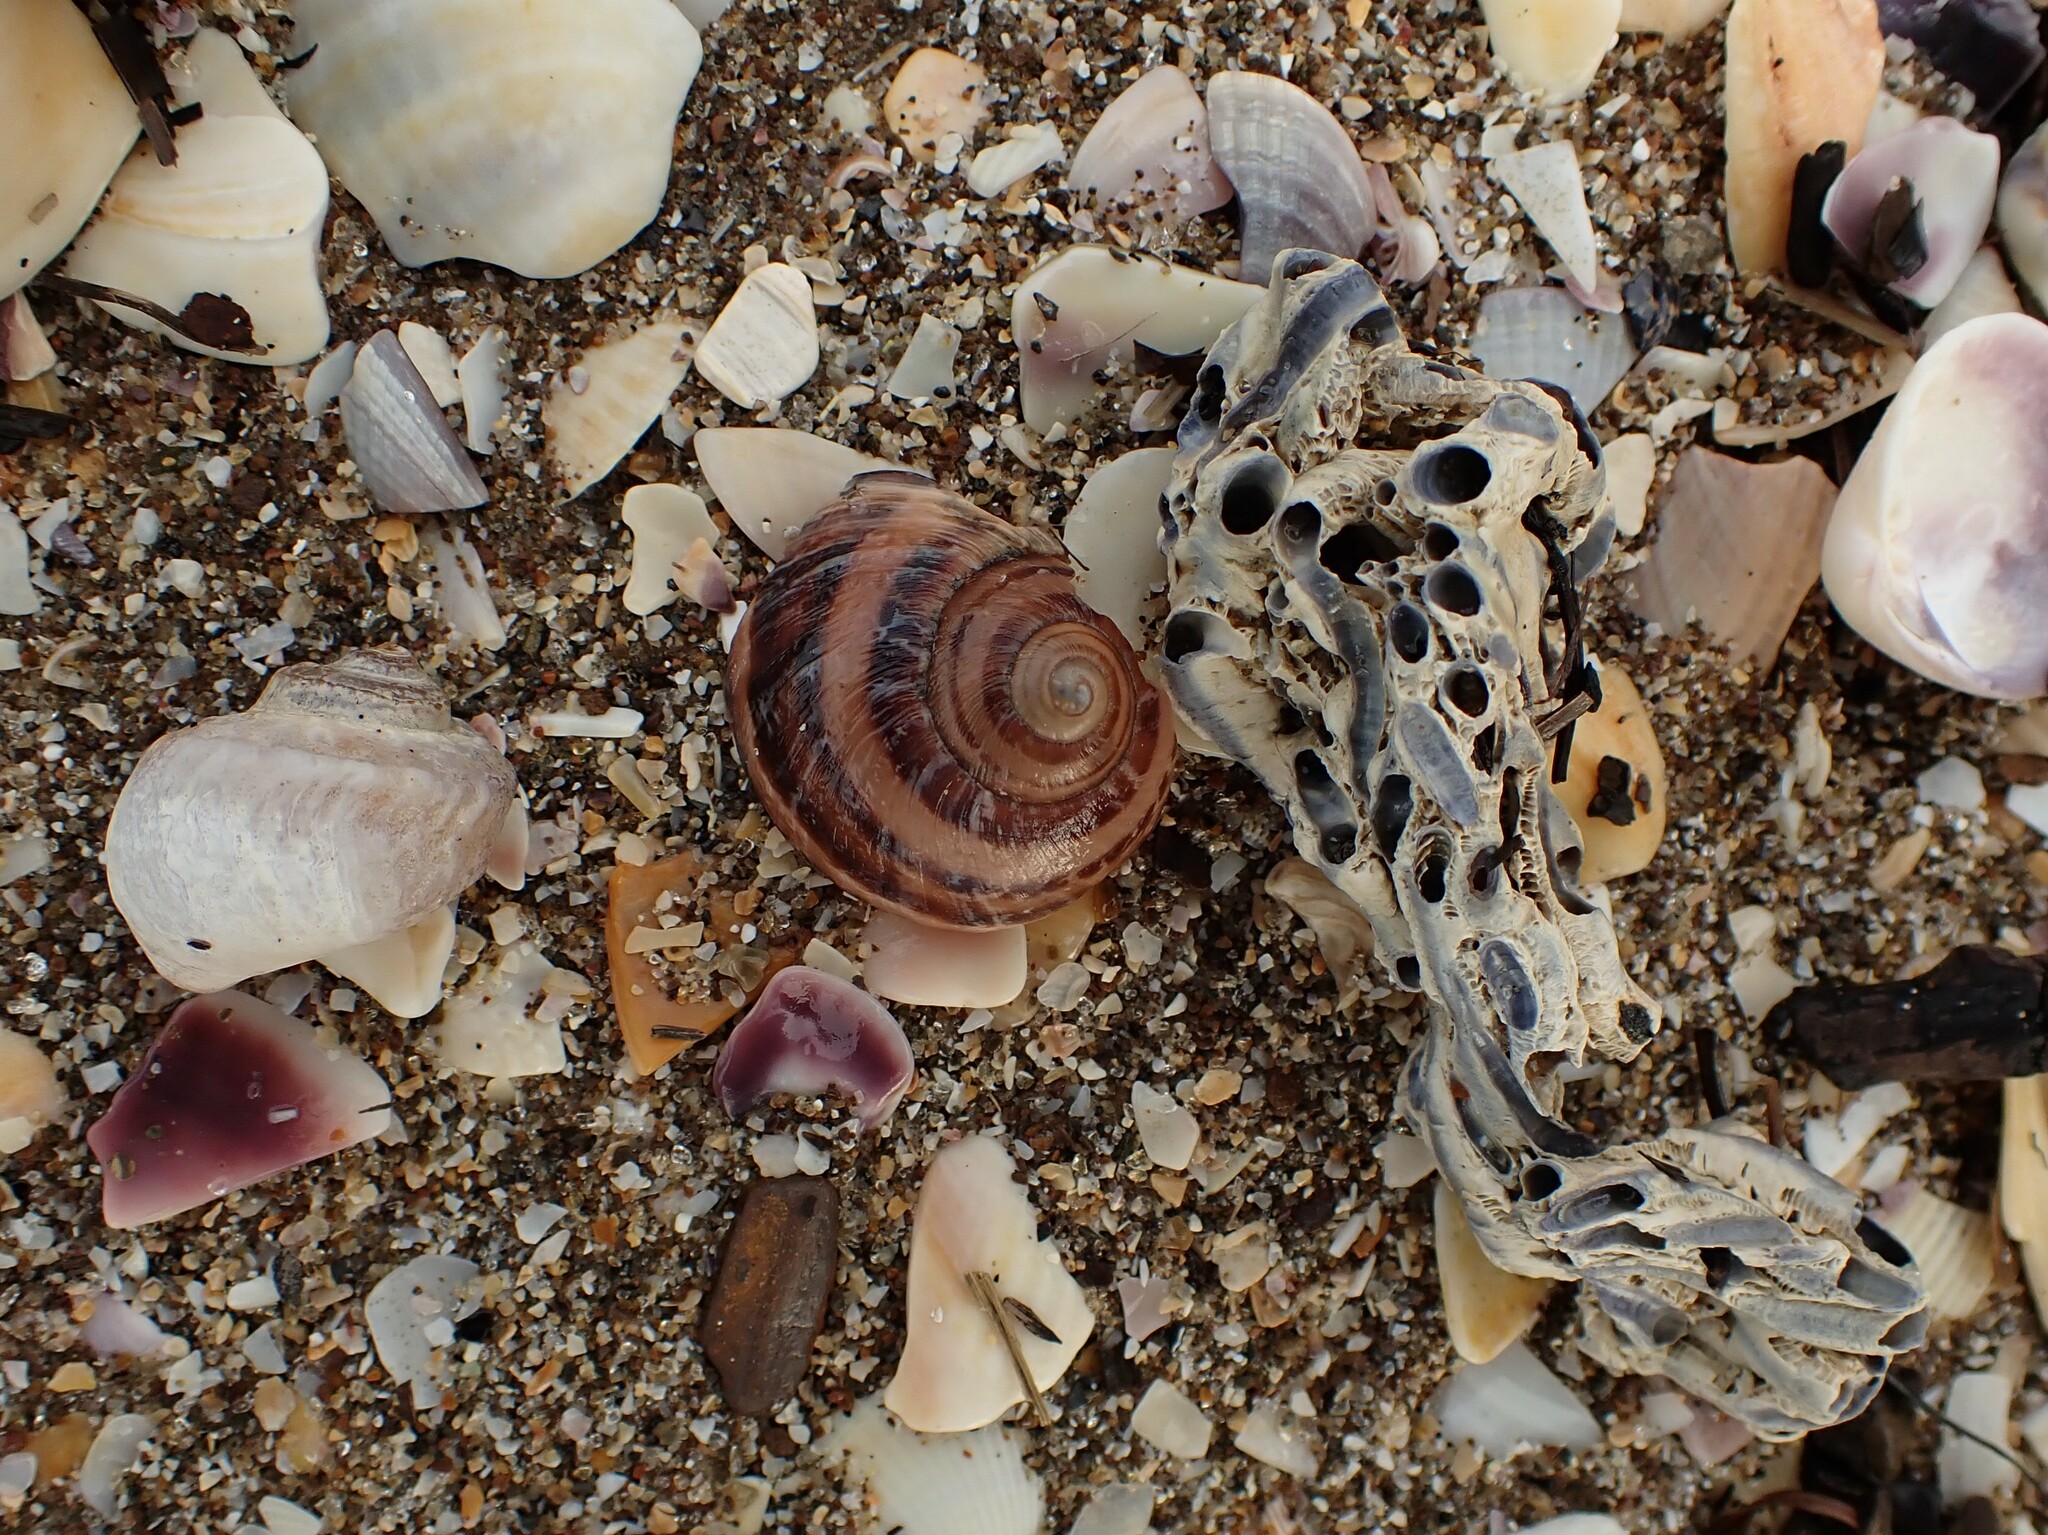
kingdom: Animalia
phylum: Annelida
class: Polychaeta
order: Sabellida
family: Serpulidae
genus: Spirobranchus
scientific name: Spirobranchus cariniferus
